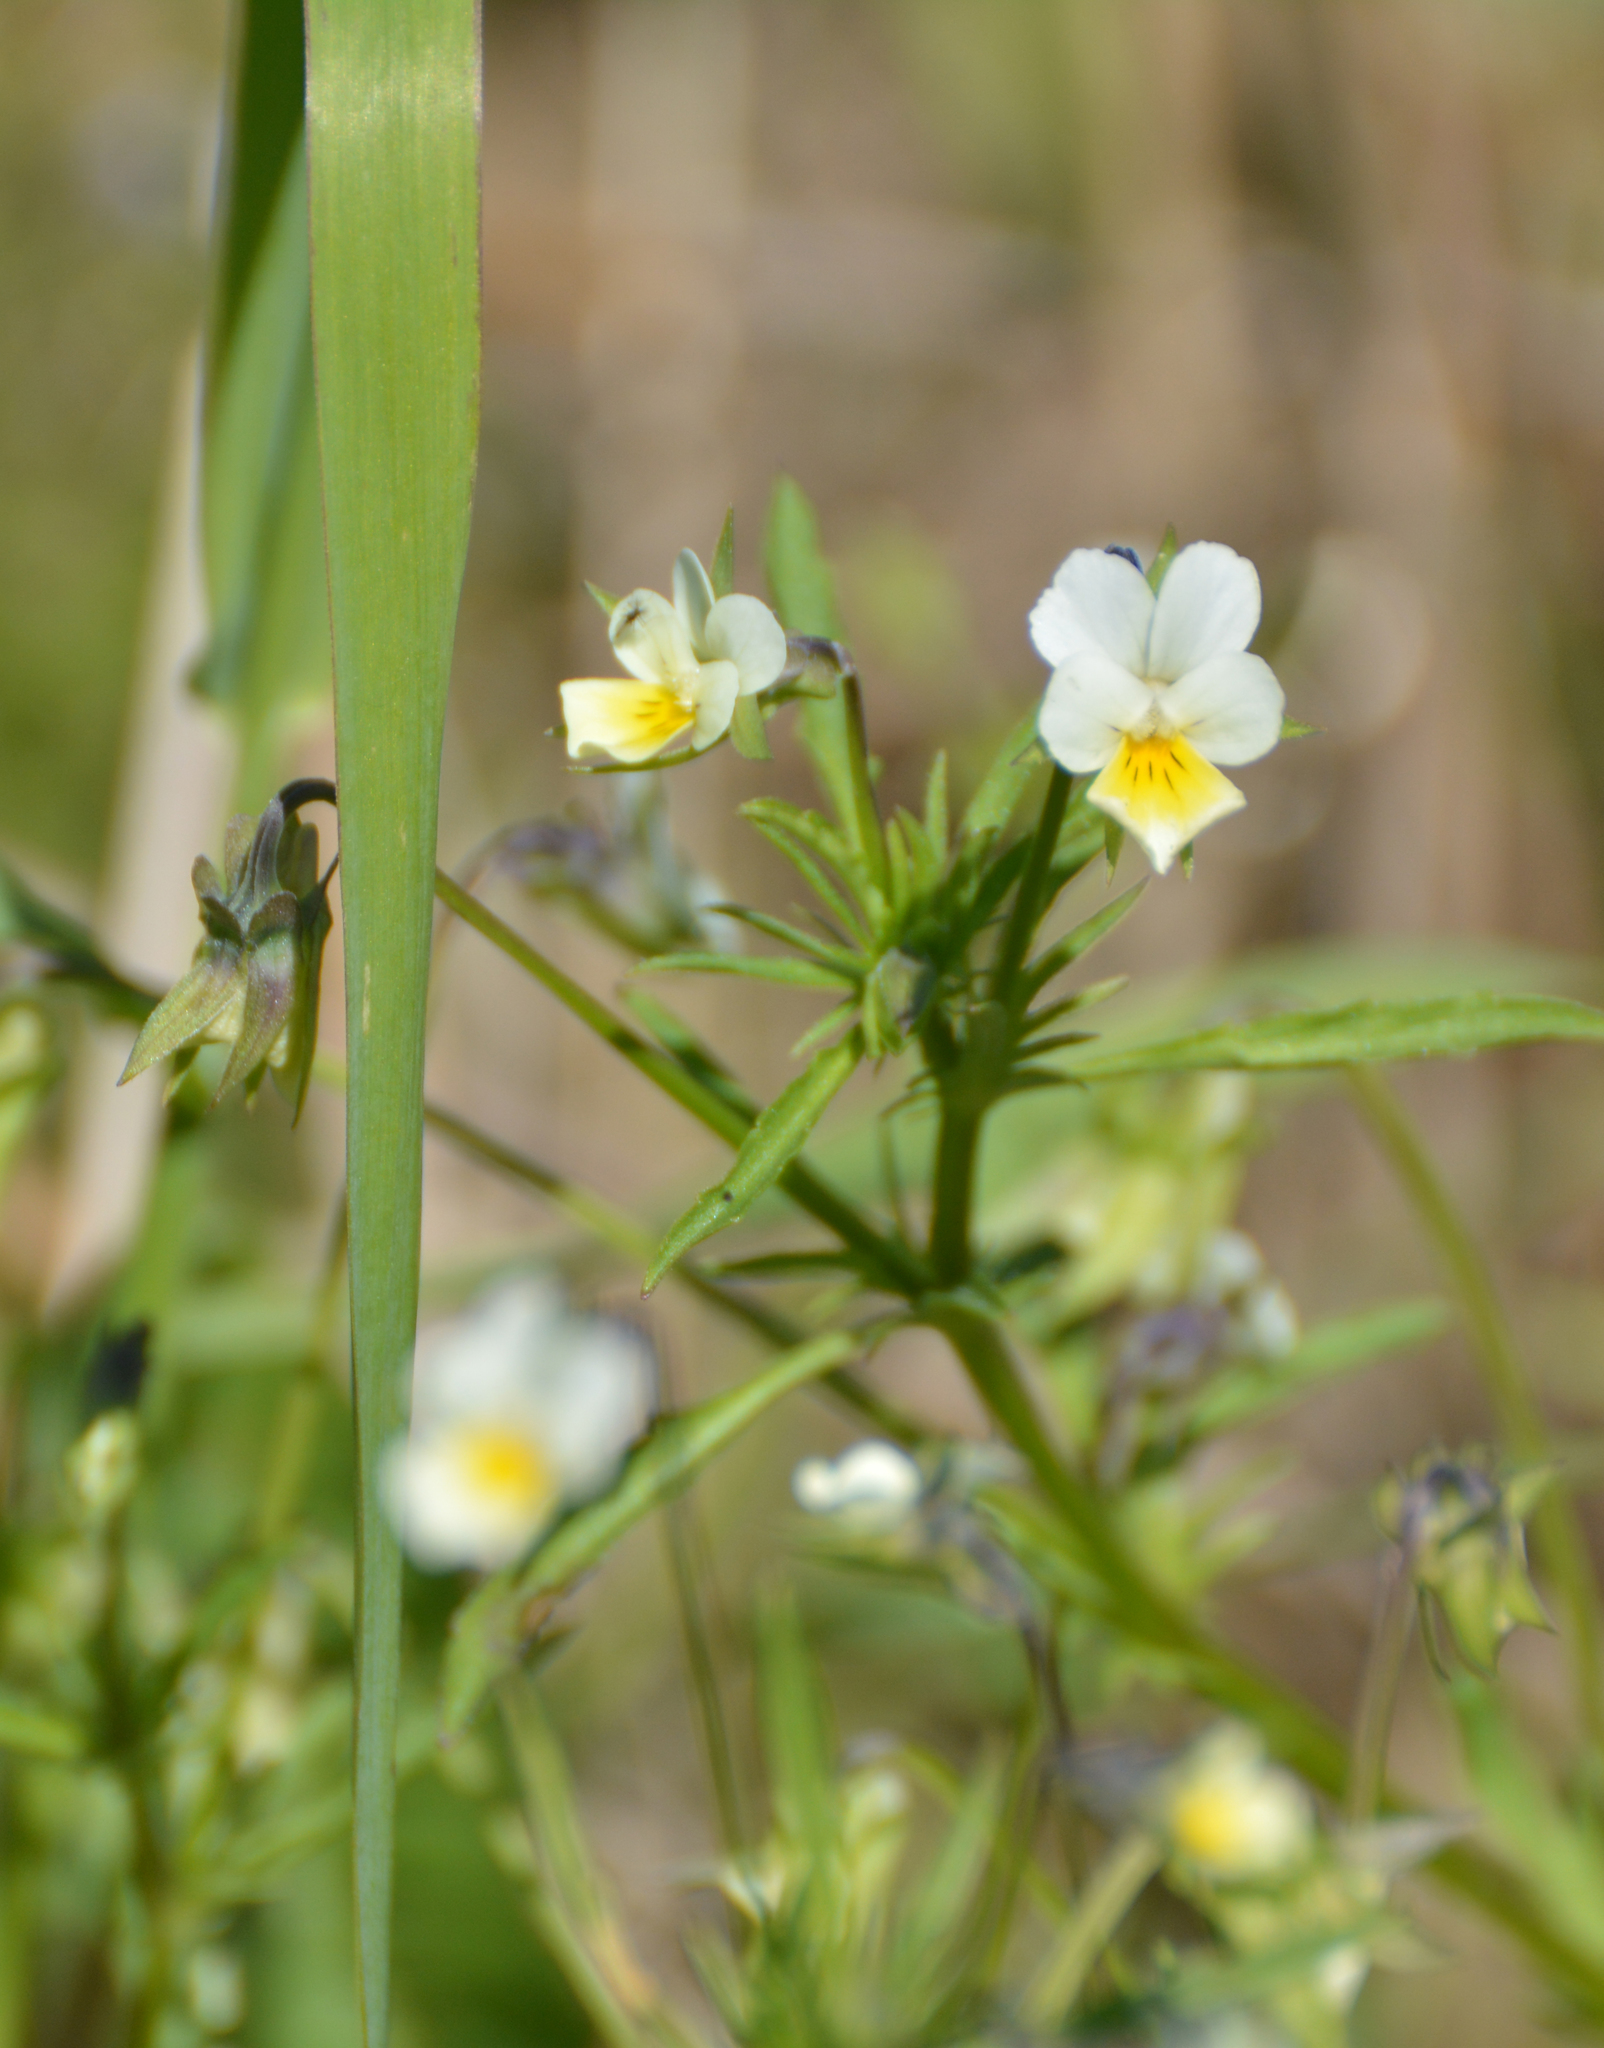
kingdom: Plantae
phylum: Tracheophyta
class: Magnoliopsida
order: Malpighiales
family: Violaceae
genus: Viola
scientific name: Viola arvensis
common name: Field pansy
